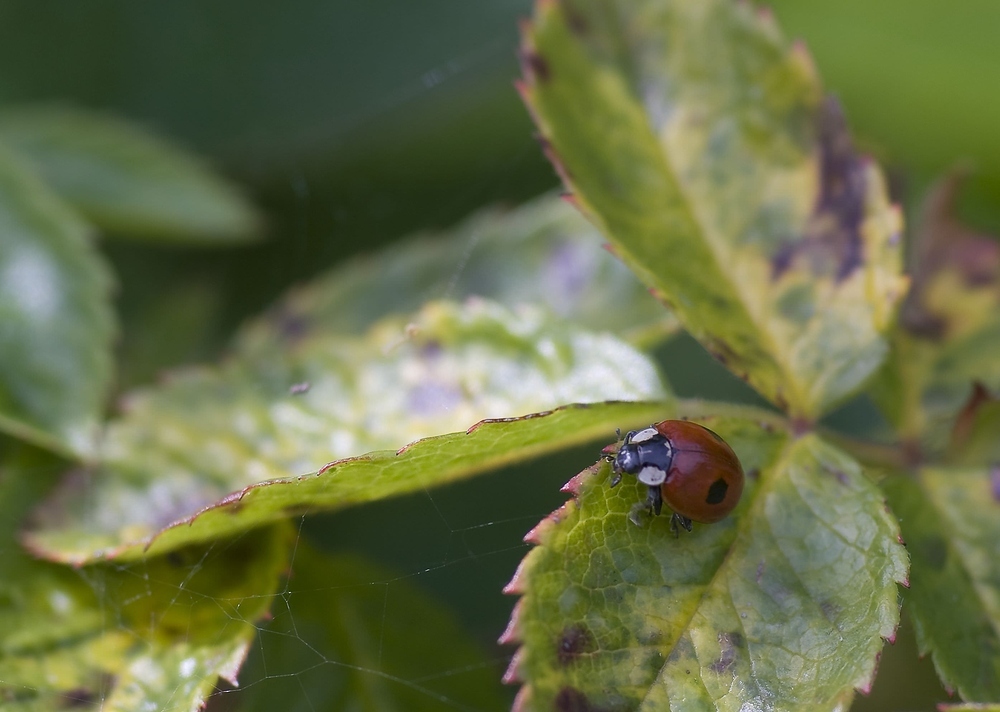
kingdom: Animalia
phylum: Arthropoda
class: Insecta
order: Coleoptera
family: Coccinellidae
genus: Adalia
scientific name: Adalia bipunctata
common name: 2-spot ladybird
